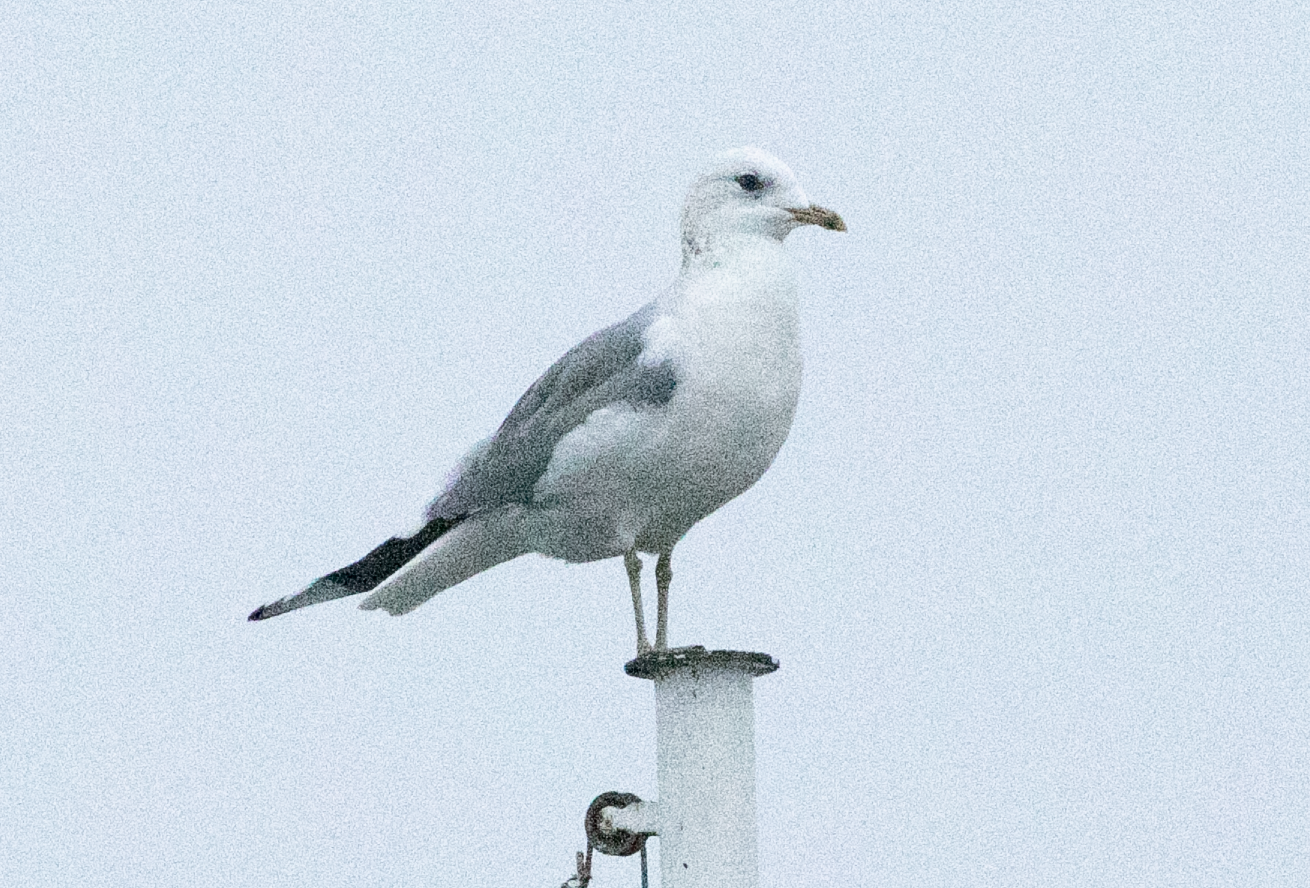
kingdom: Animalia
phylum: Chordata
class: Aves
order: Charadriiformes
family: Laridae
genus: Larus
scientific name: Larus canus
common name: Mew gull
